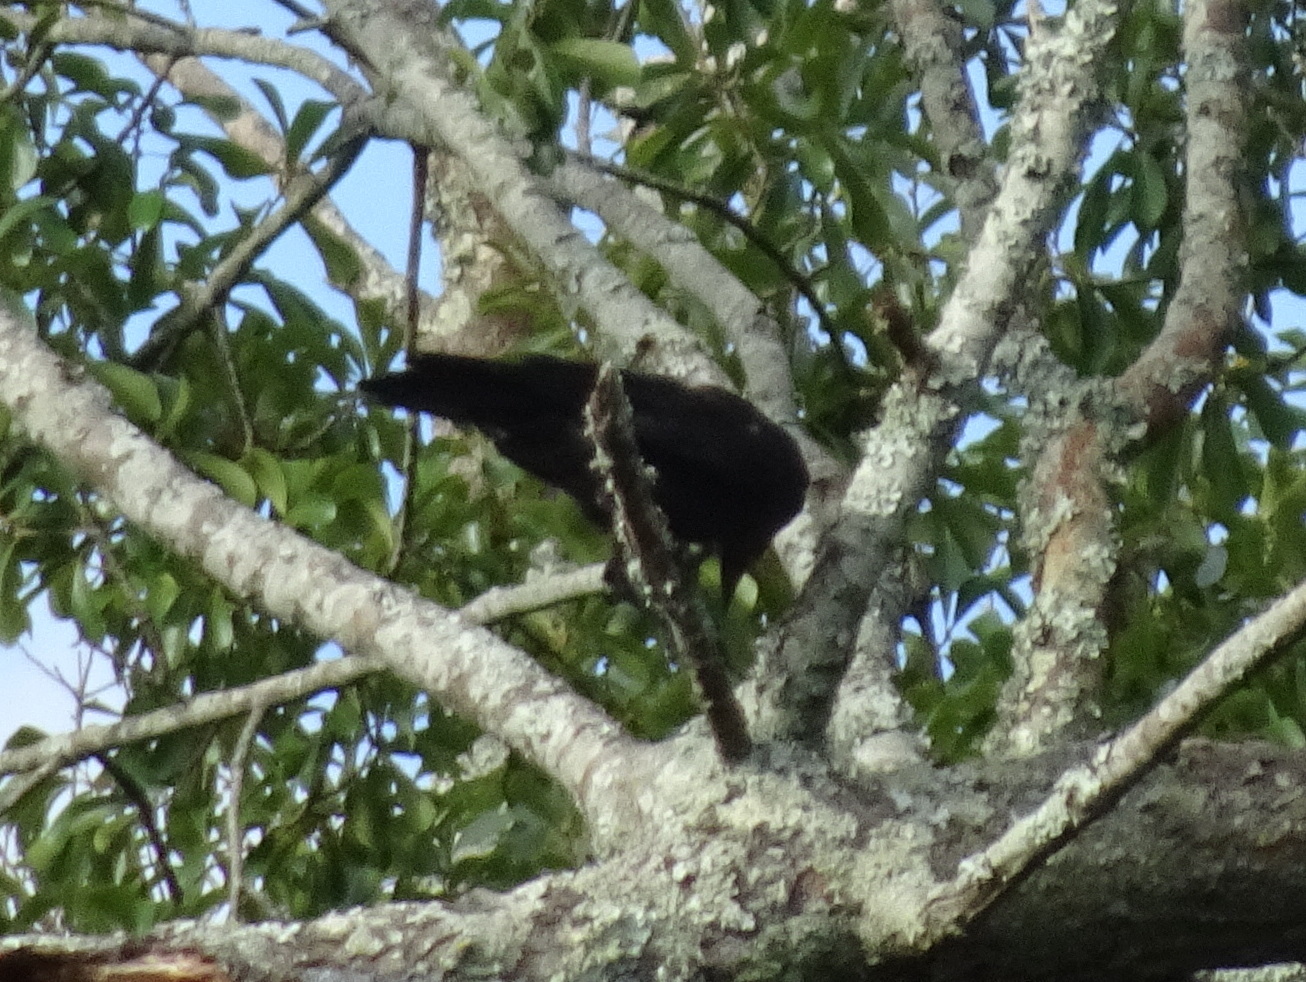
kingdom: Animalia
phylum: Chordata
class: Aves
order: Passeriformes
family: Corvidae
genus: Corvus
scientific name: Corvus ossifragus
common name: Fish crow
